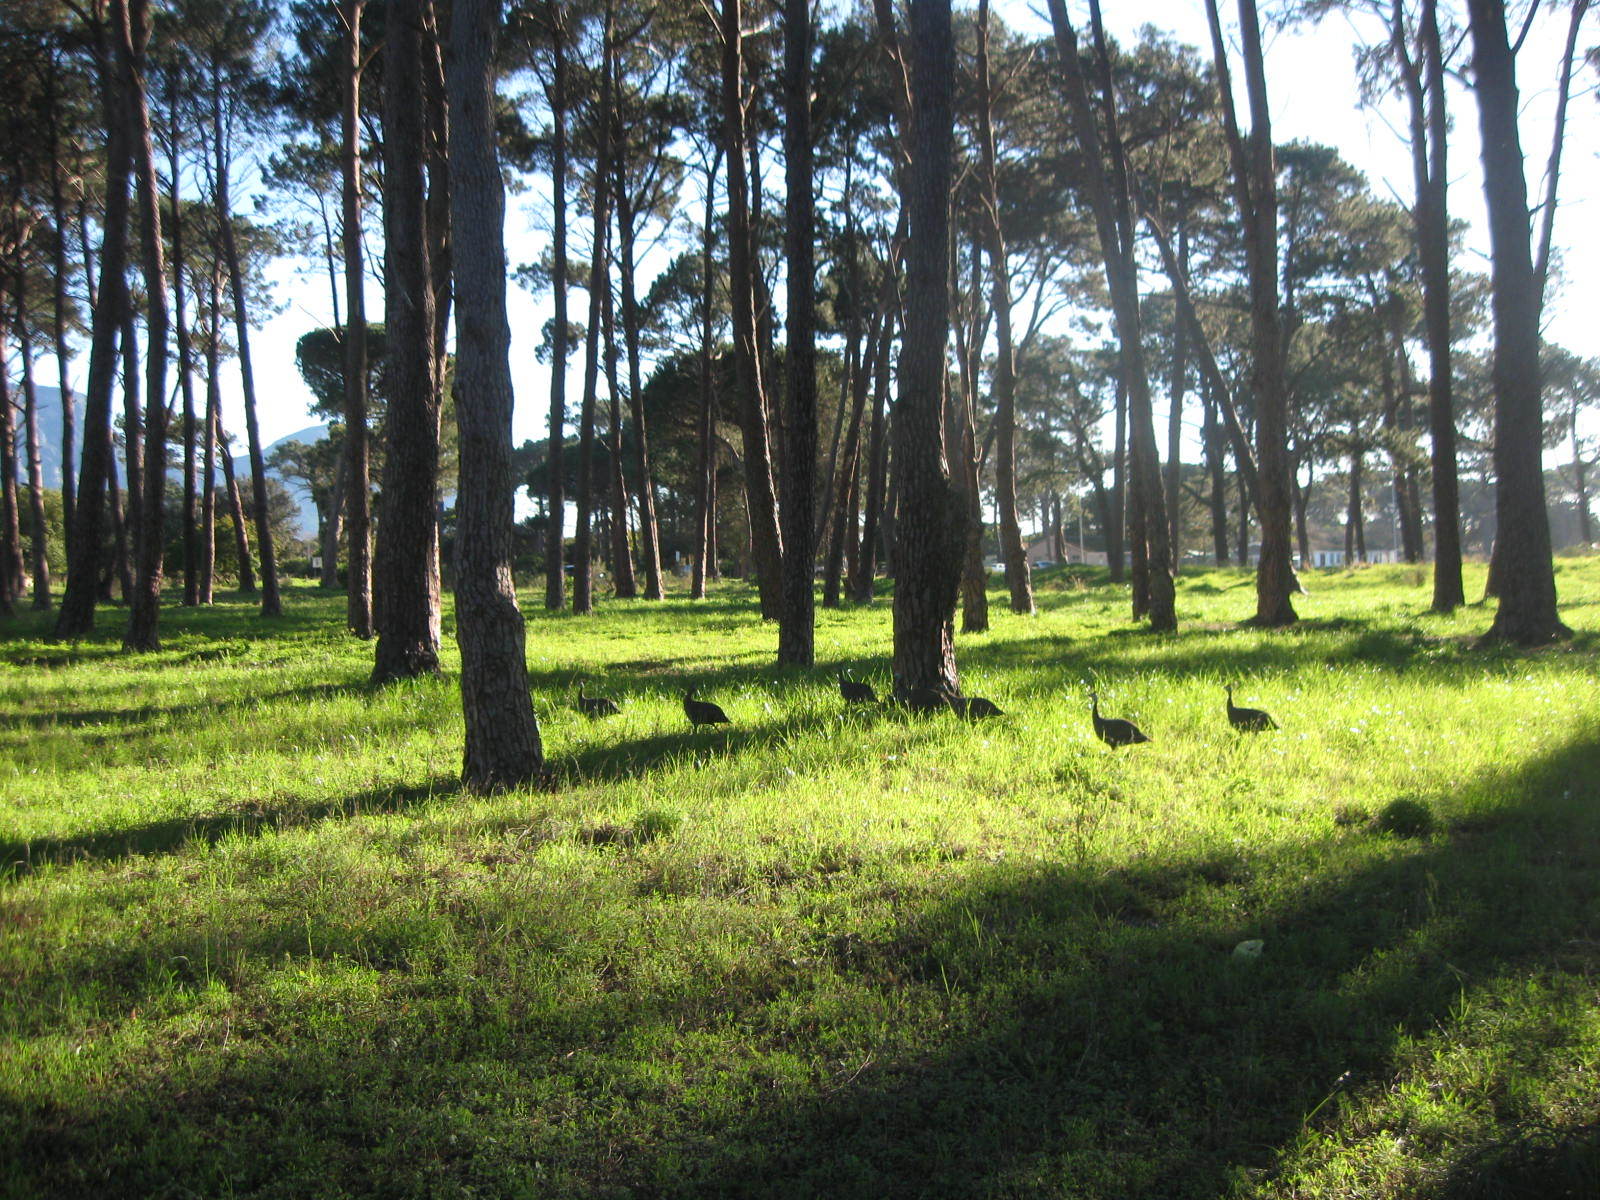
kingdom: Animalia
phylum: Chordata
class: Aves
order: Galliformes
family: Numididae
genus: Numida
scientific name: Numida meleagris
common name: Helmeted guineafowl
